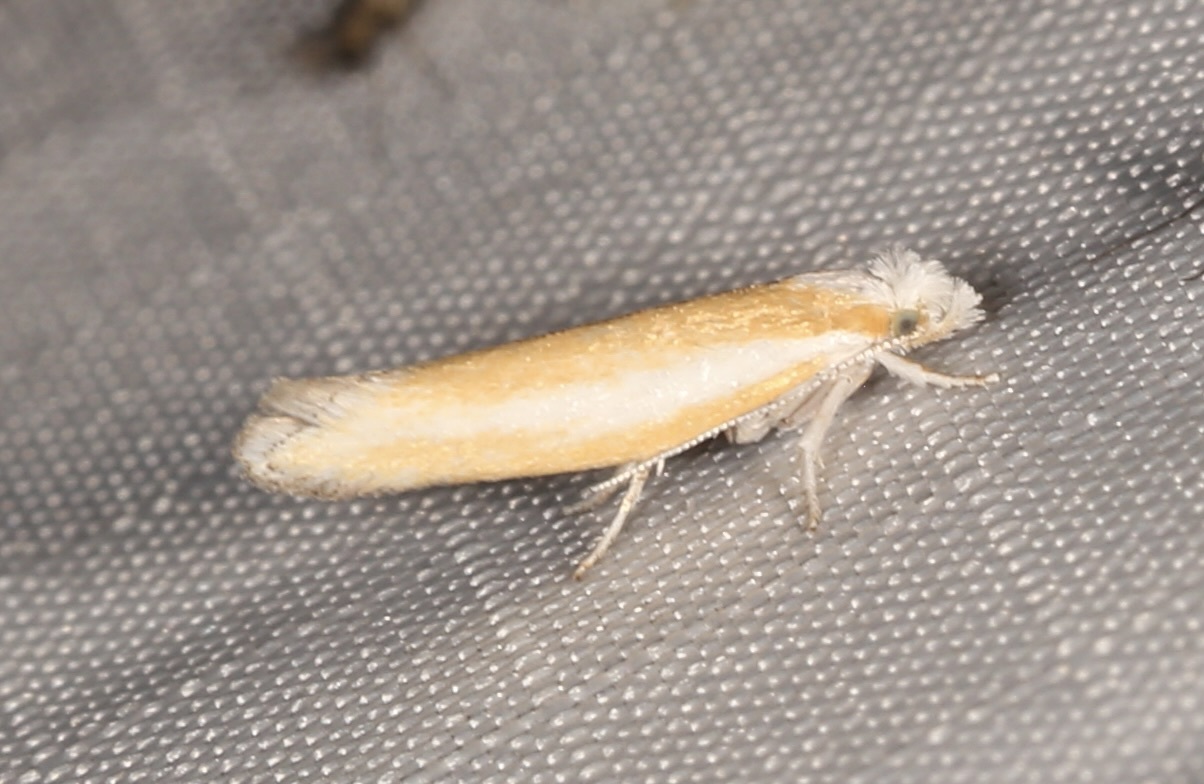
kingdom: Animalia
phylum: Arthropoda
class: Insecta
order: Lepidoptera
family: Yponomeutidae
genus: Zelleria
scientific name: Zelleria haimbachi
